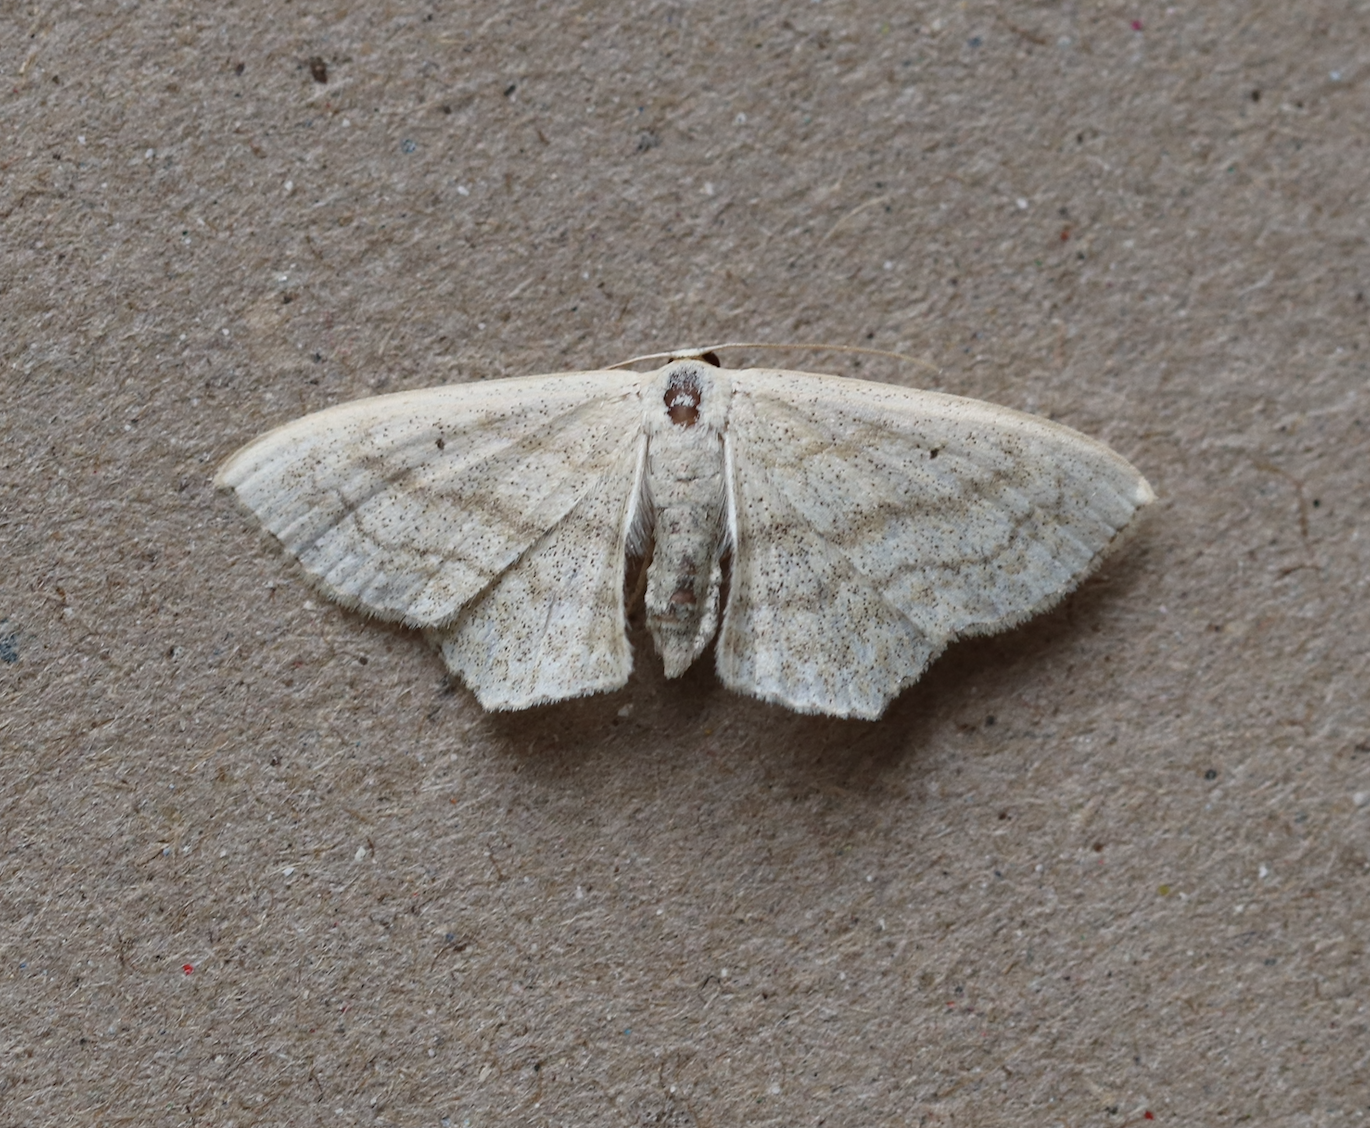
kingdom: Animalia
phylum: Arthropoda
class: Insecta
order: Lepidoptera
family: Geometridae
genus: Scopula
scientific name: Scopula nigropunctata
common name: Sub-angled wave
